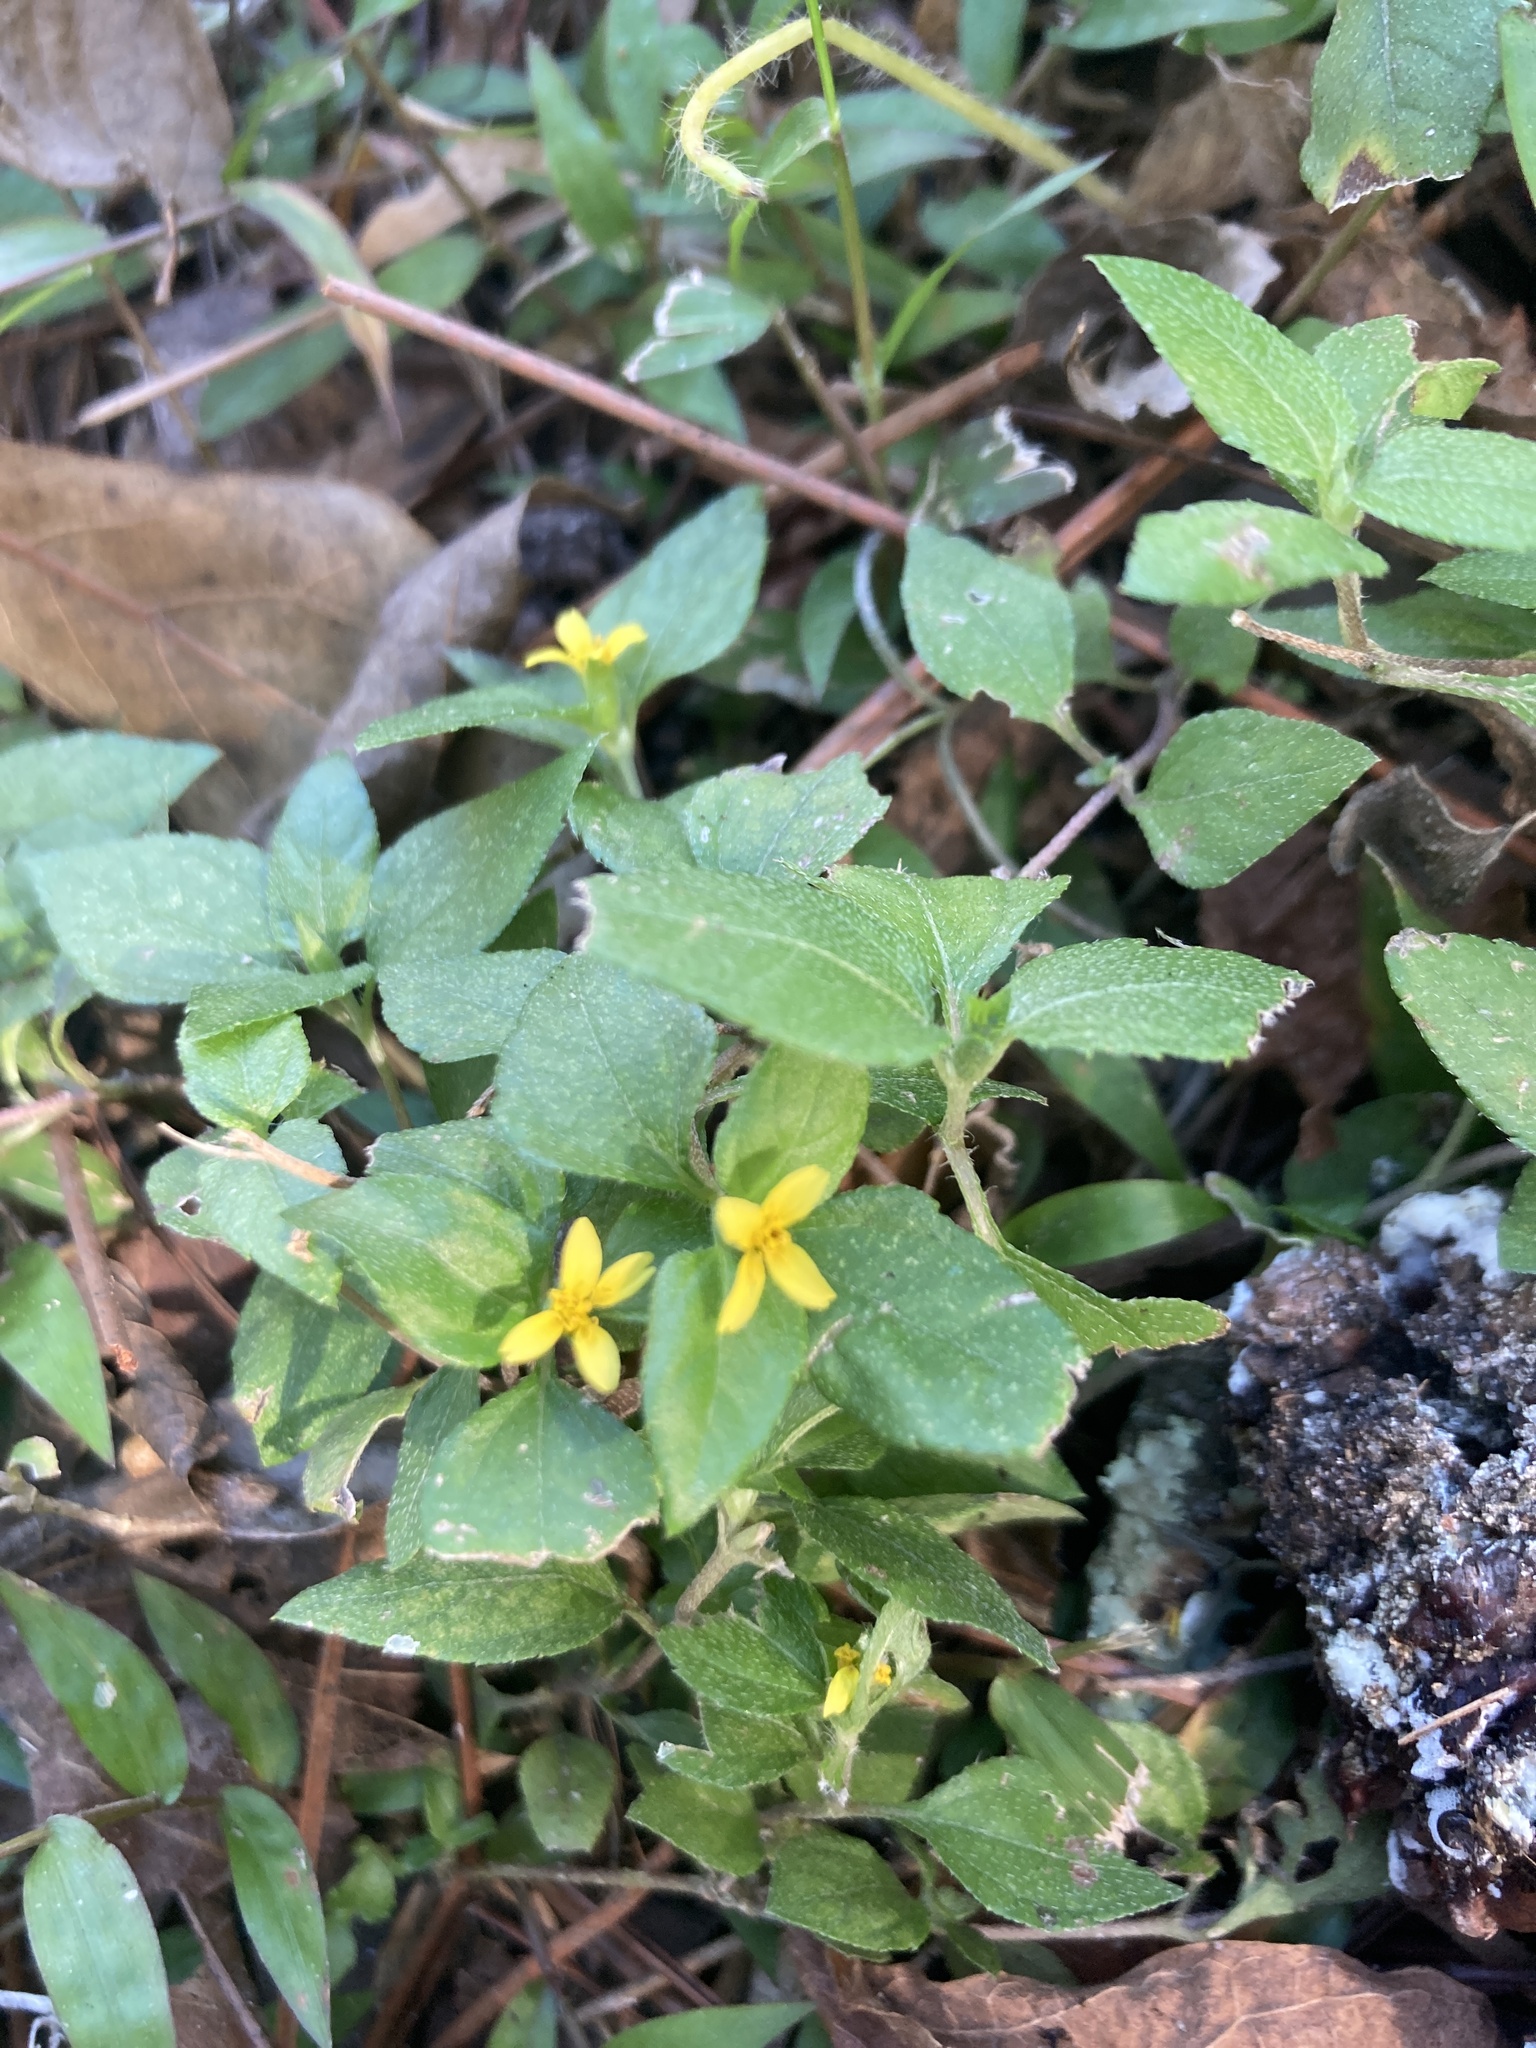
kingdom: Plantae
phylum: Tracheophyta
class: Magnoliopsida
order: Asterales
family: Asteraceae
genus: Calyptocarpus
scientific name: Calyptocarpus vialis
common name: Straggler daisy
